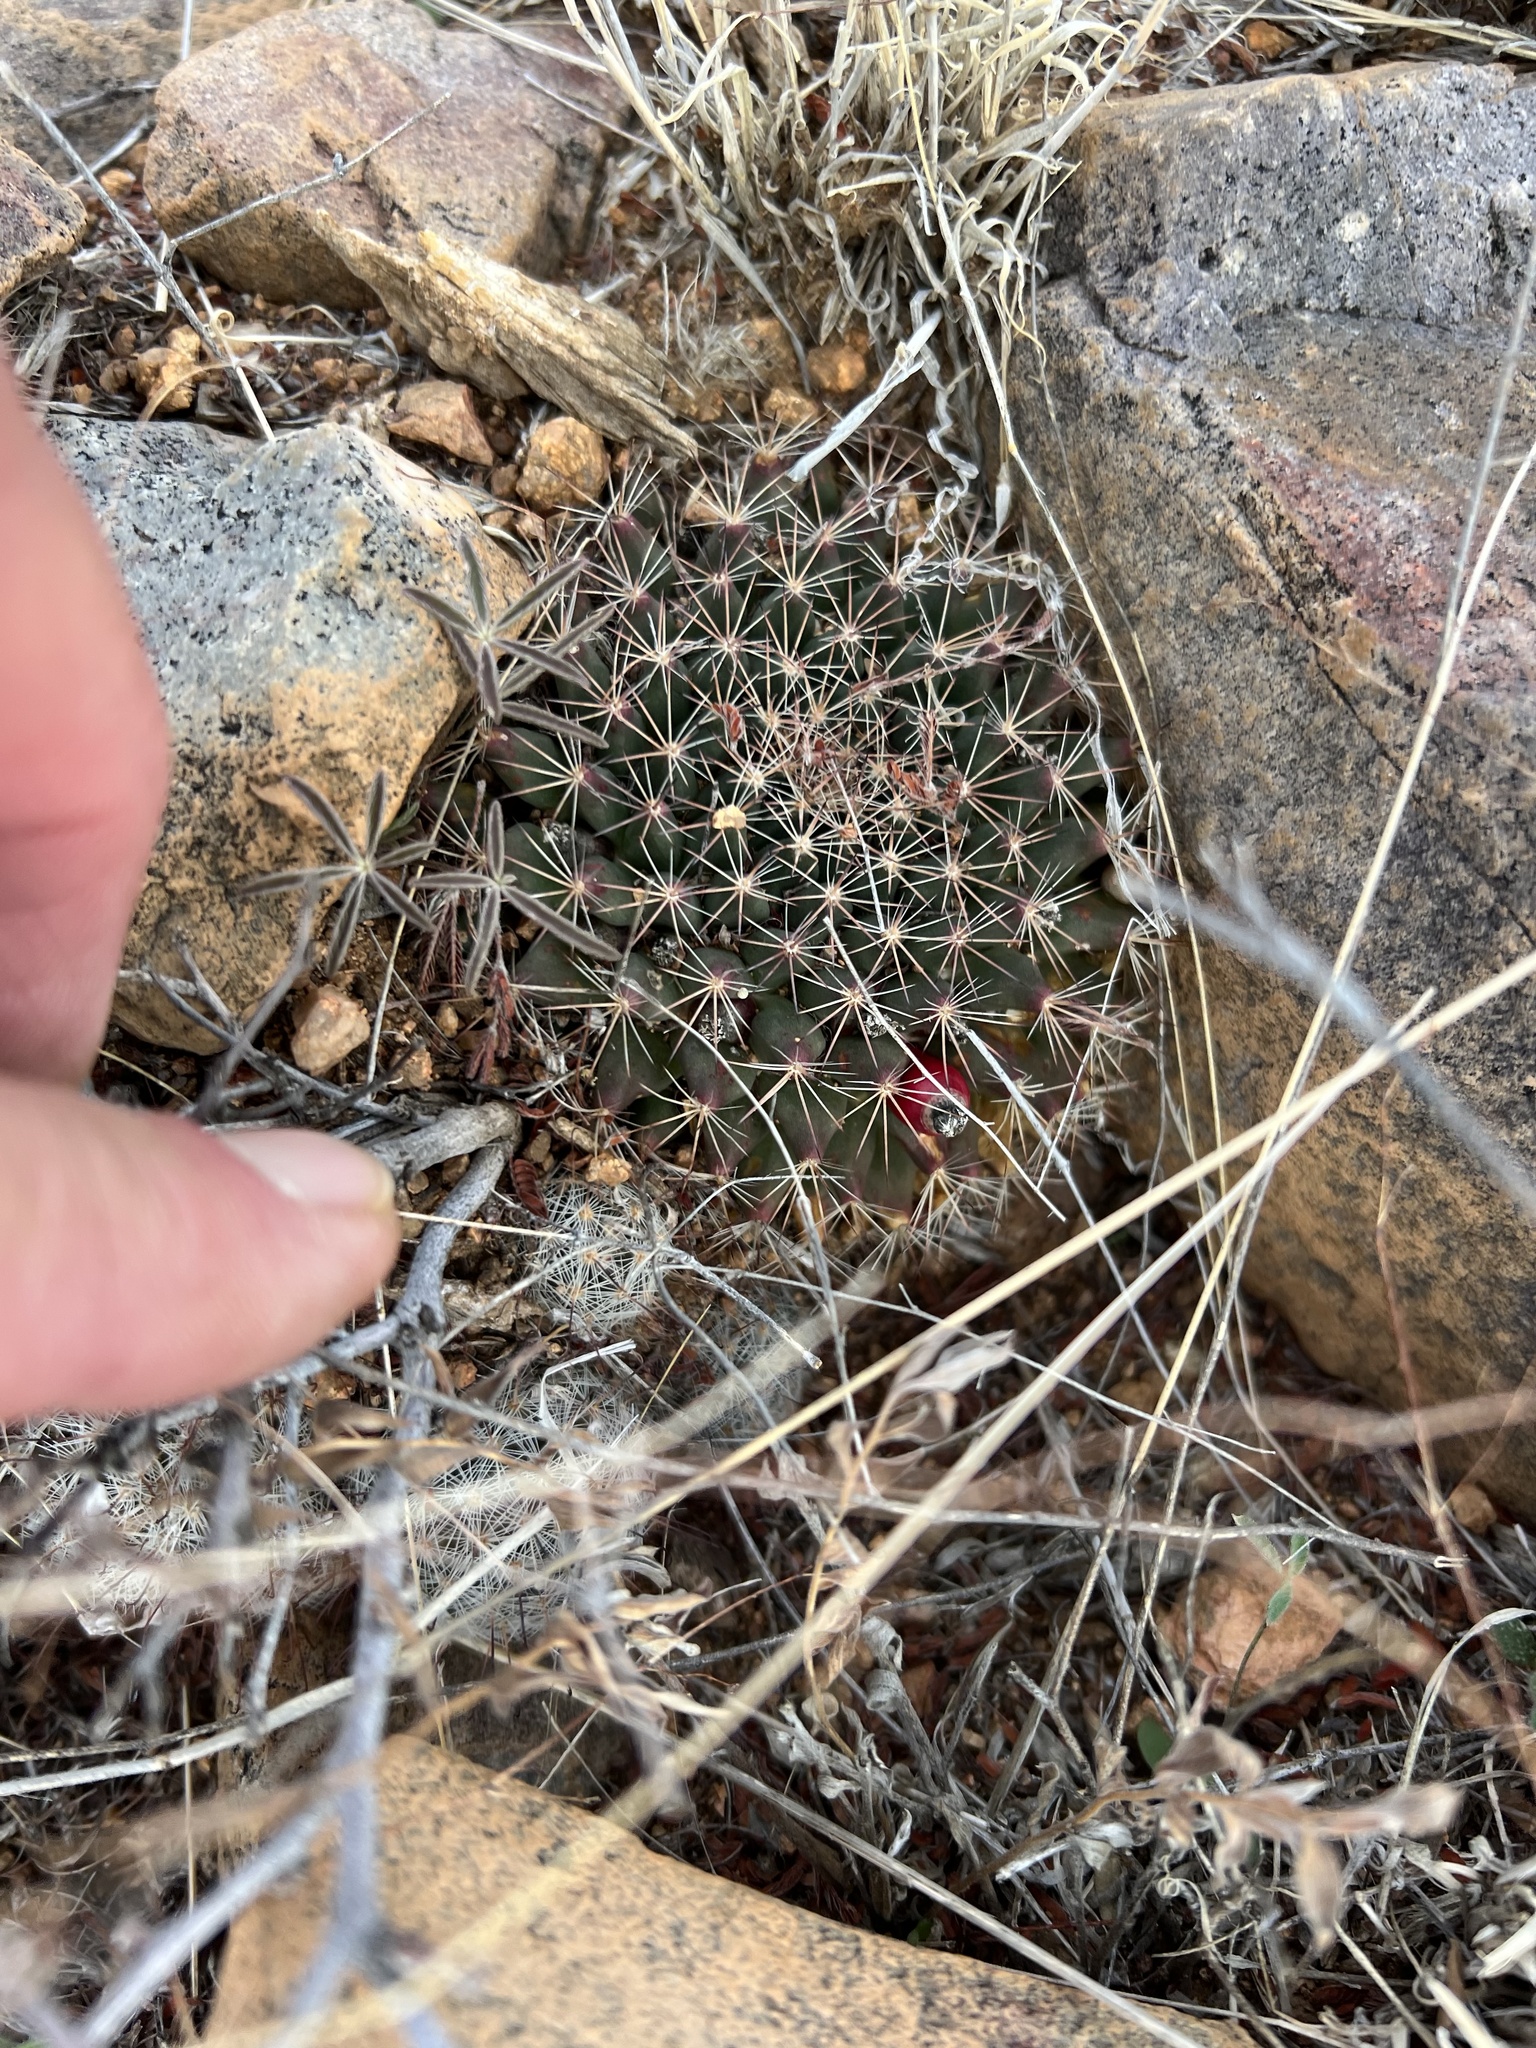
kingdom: Plantae
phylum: Tracheophyta
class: Magnoliopsida
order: Caryophyllales
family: Cactaceae
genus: Mammillaria
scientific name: Mammillaria heyderi
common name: Little nipple cactus
